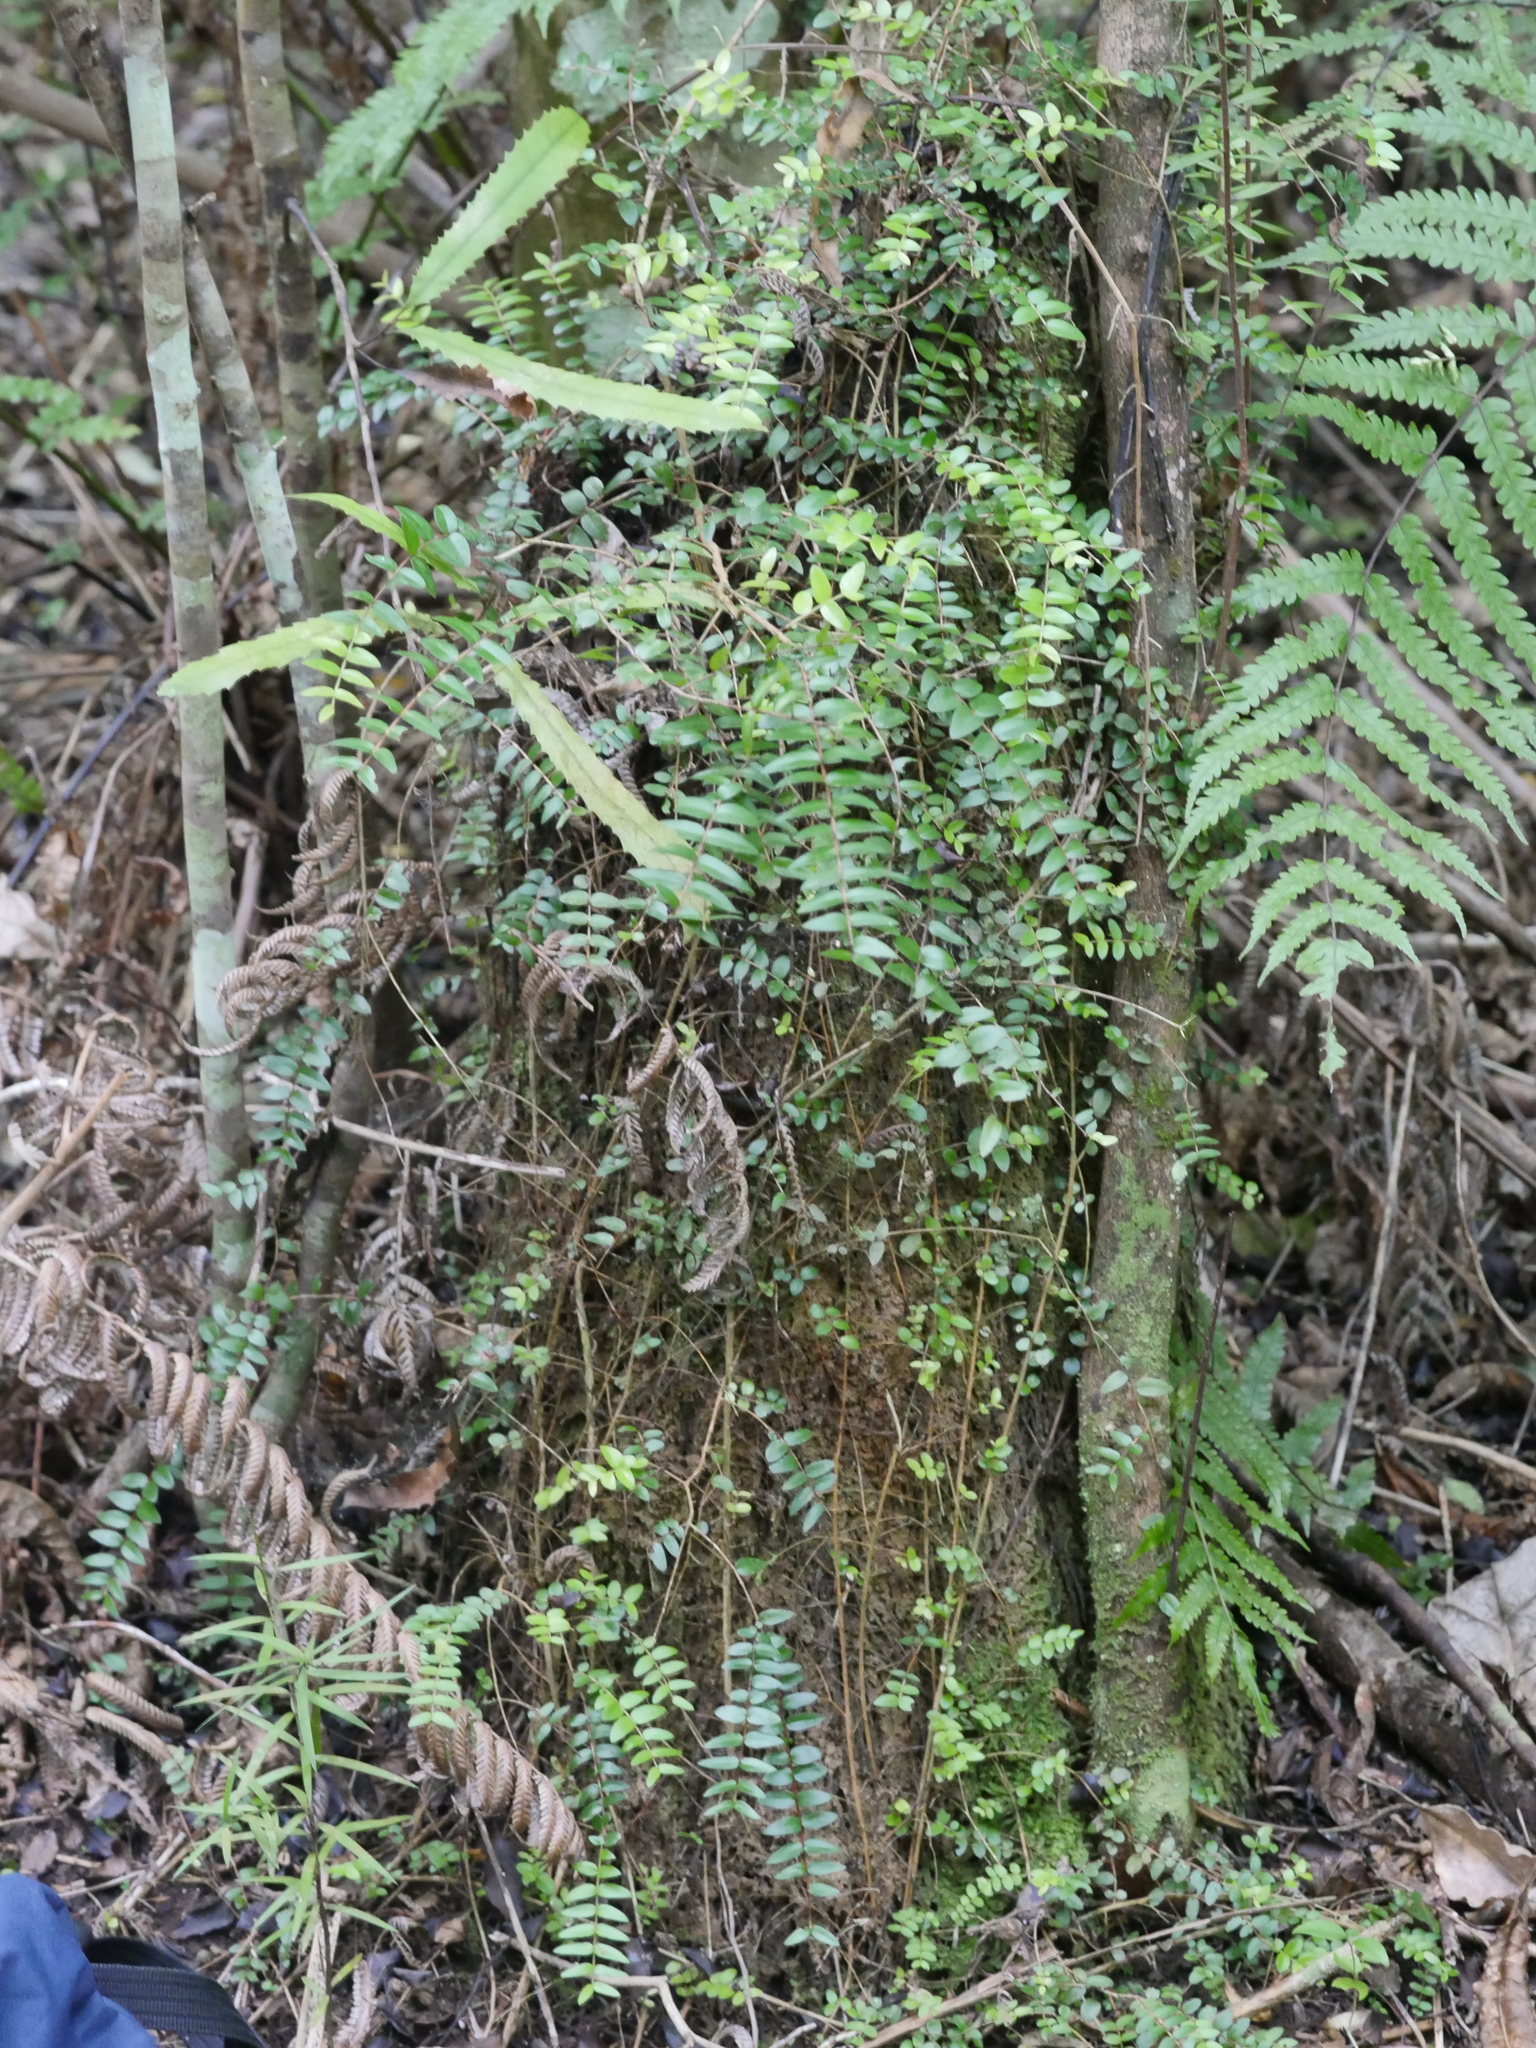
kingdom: Plantae
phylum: Tracheophyta
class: Magnoliopsida
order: Myrtales
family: Myrtaceae
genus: Metrosideros
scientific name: Metrosideros diffusa
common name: Small ratavine
